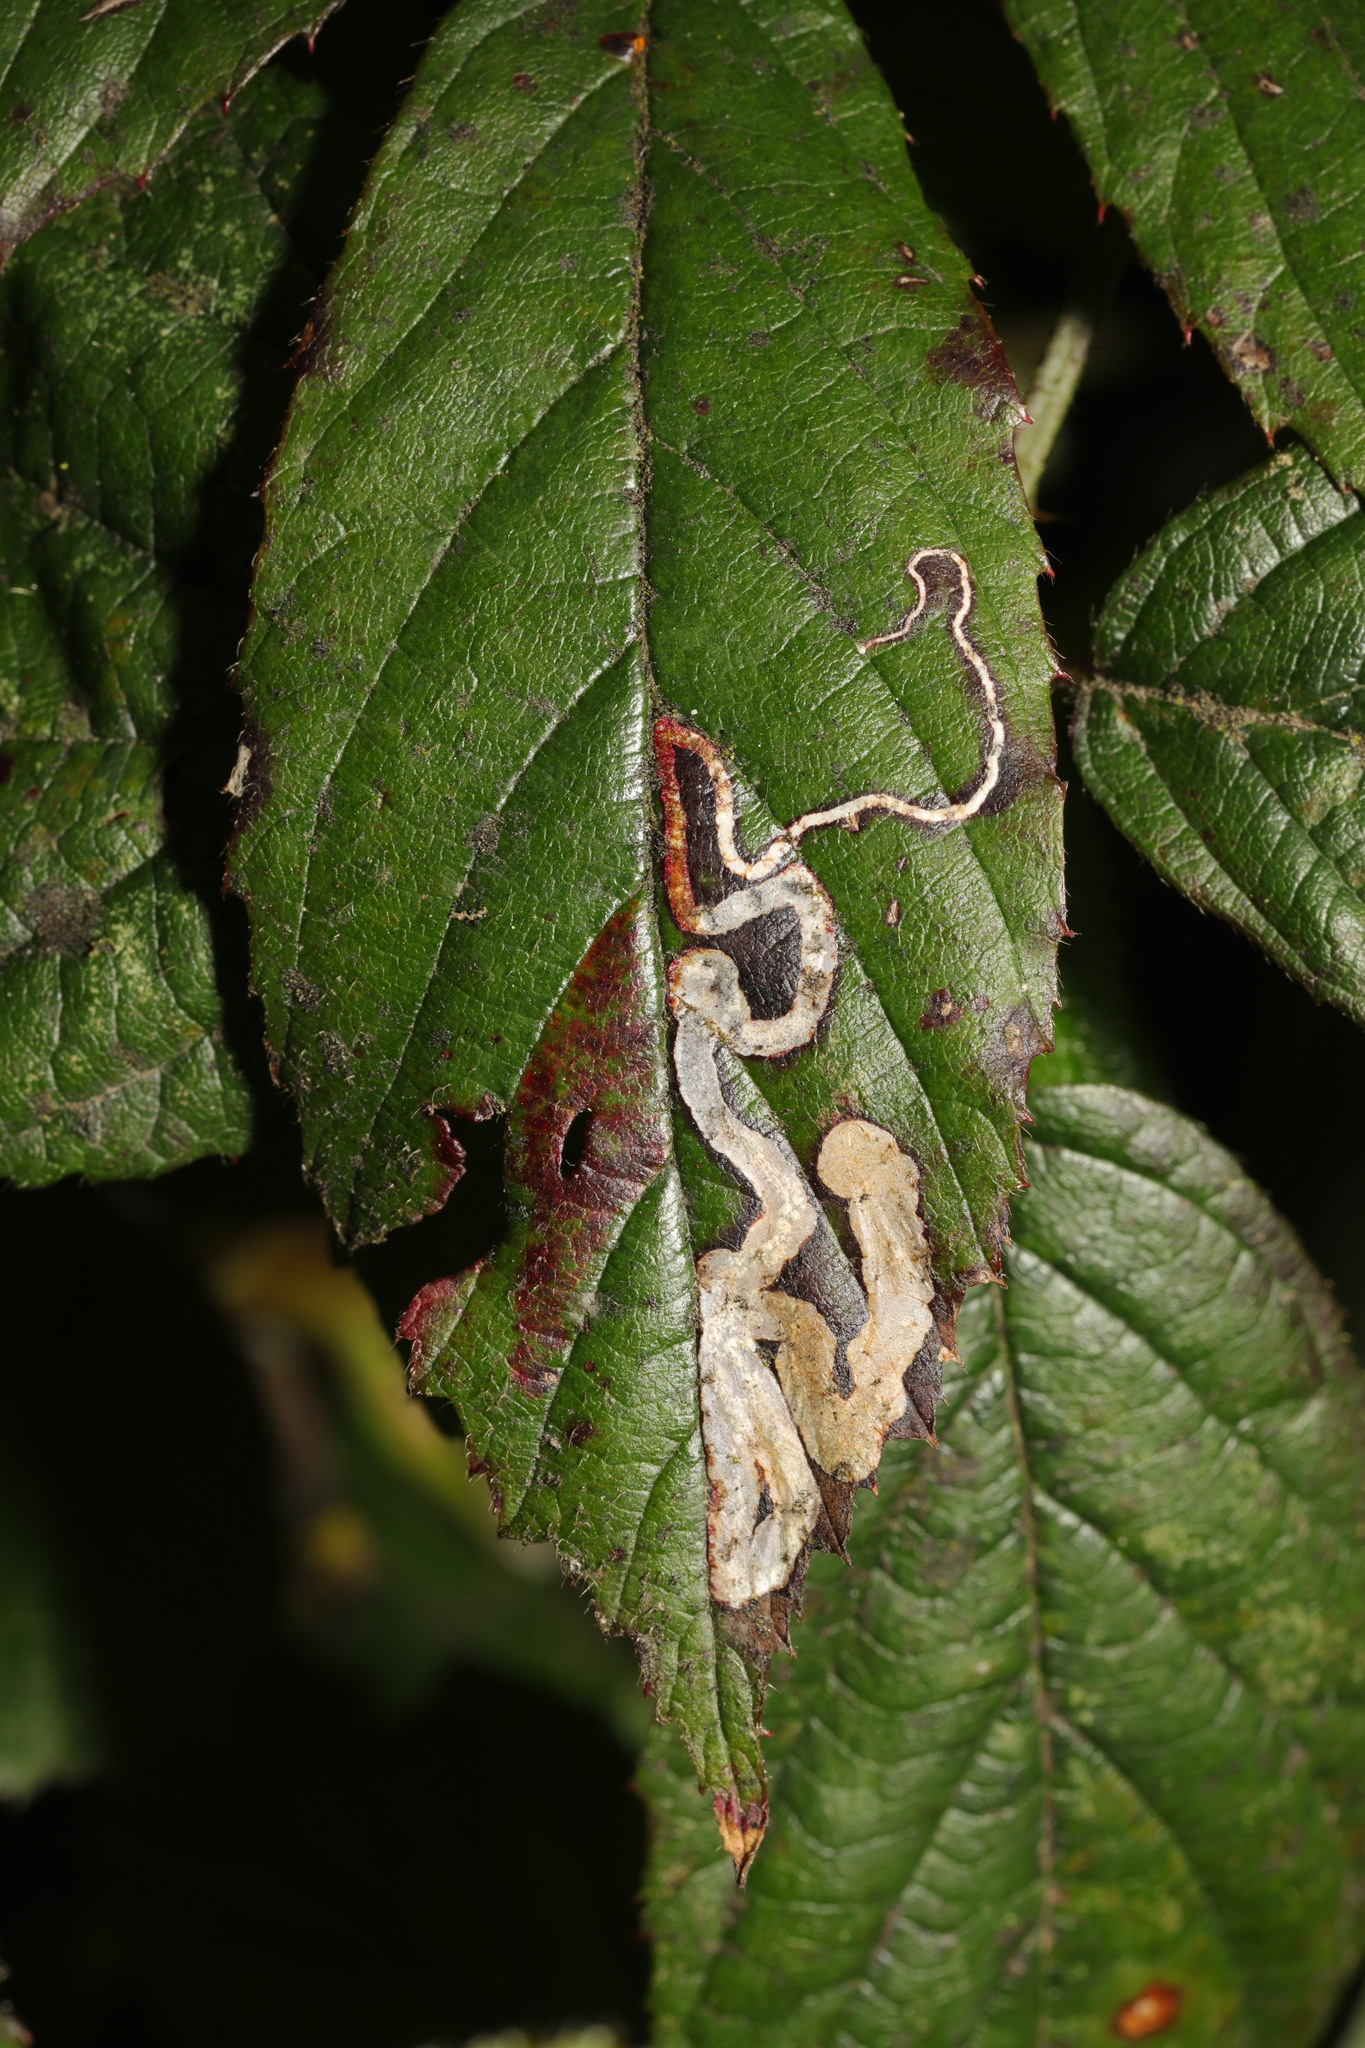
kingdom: Animalia
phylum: Arthropoda
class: Insecta
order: Lepidoptera
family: Nepticulidae
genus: Stigmella
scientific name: Stigmella aurella
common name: Golden pigmy
